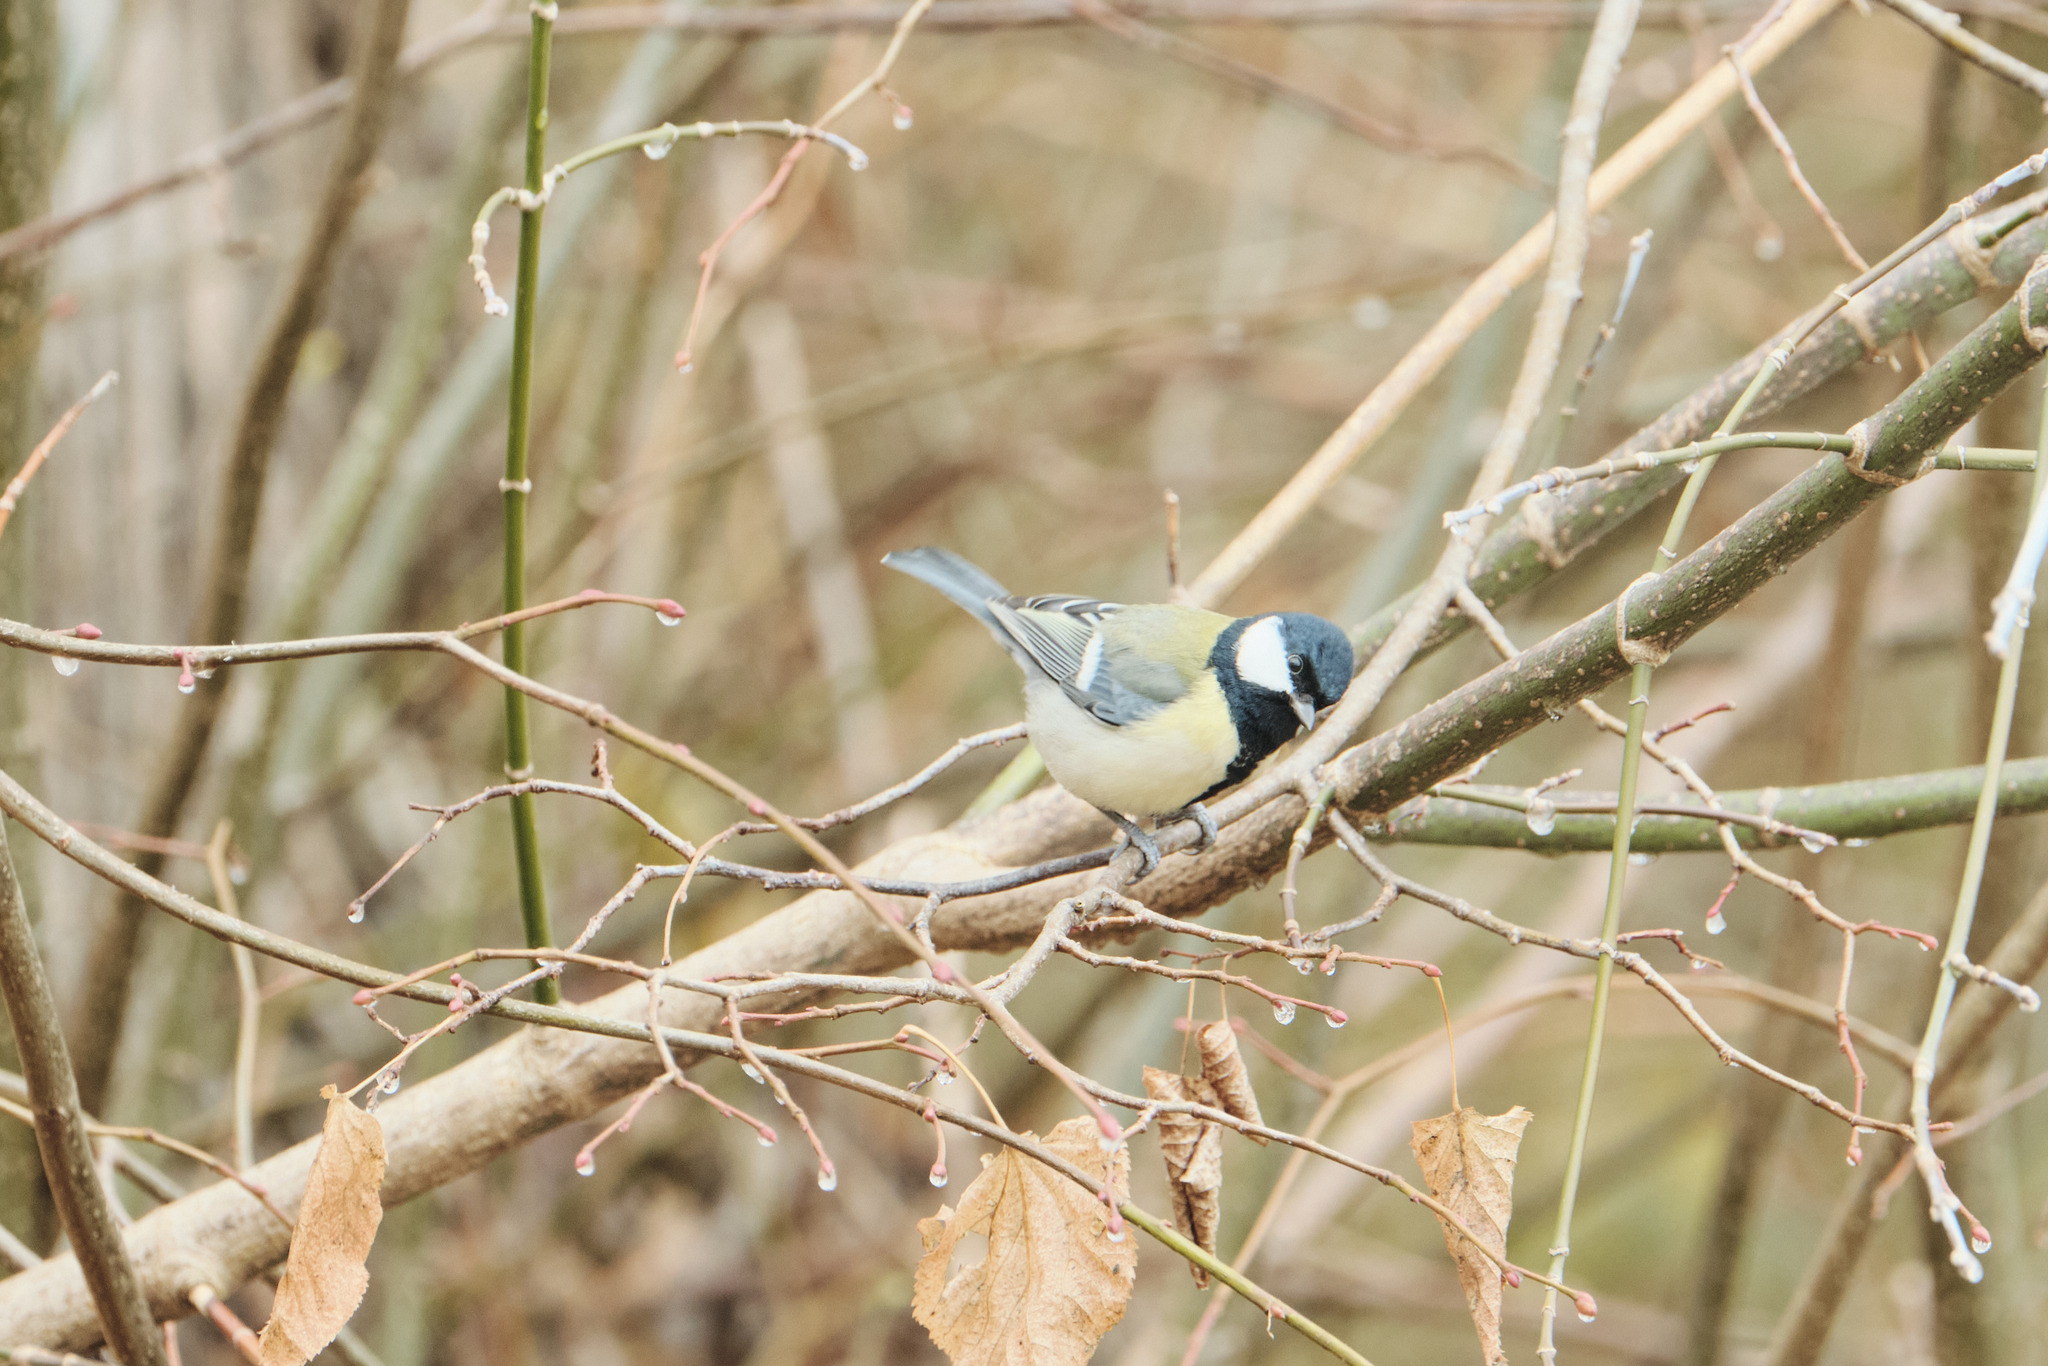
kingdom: Animalia
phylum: Chordata
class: Aves
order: Passeriformes
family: Paridae
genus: Parus
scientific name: Parus major
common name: Great tit
